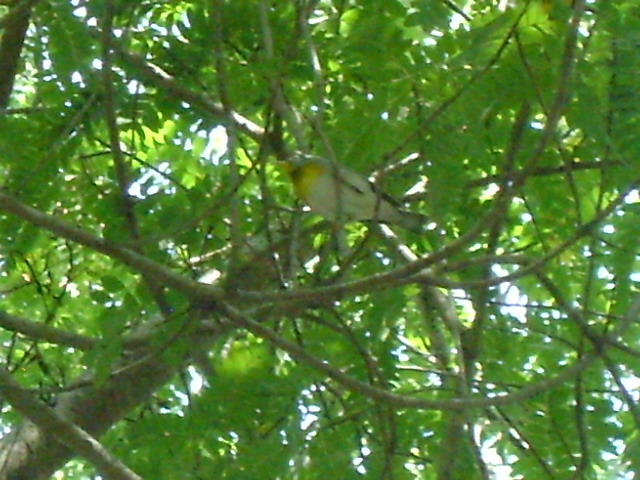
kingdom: Animalia
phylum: Chordata
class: Aves
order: Passeriformes
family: Parulidae
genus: Setophaga
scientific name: Setophaga americana
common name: Northern parula
